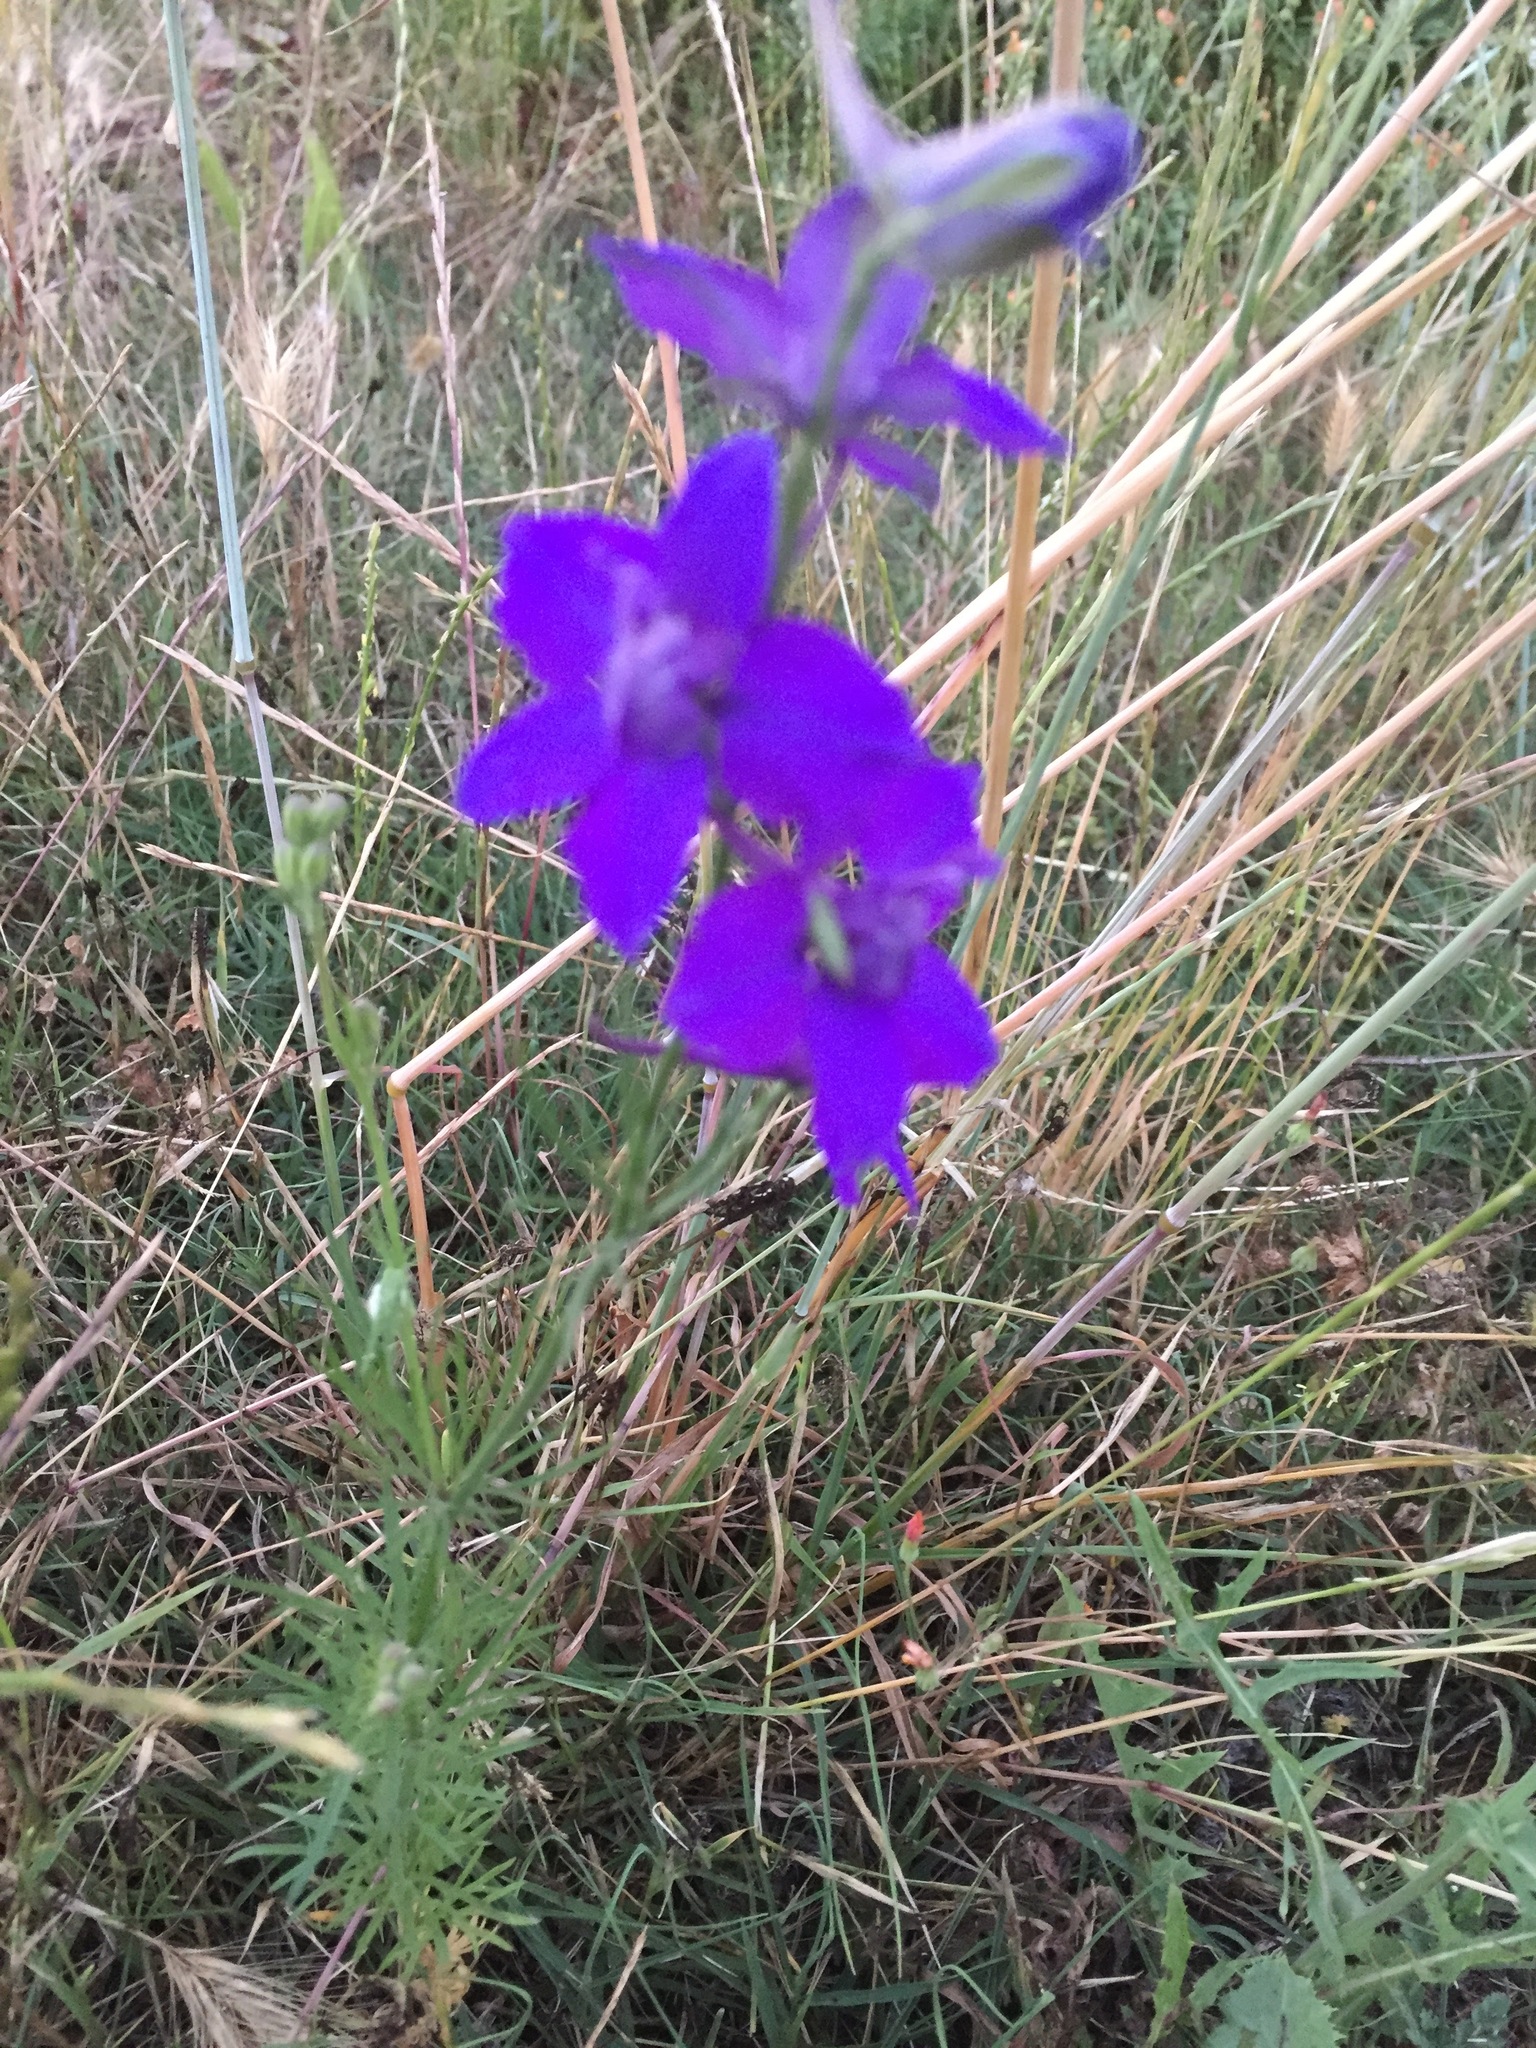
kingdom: Plantae
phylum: Tracheophyta
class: Magnoliopsida
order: Ranunculales
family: Ranunculaceae
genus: Delphinium
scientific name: Delphinium consolida
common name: Branching larkspur
